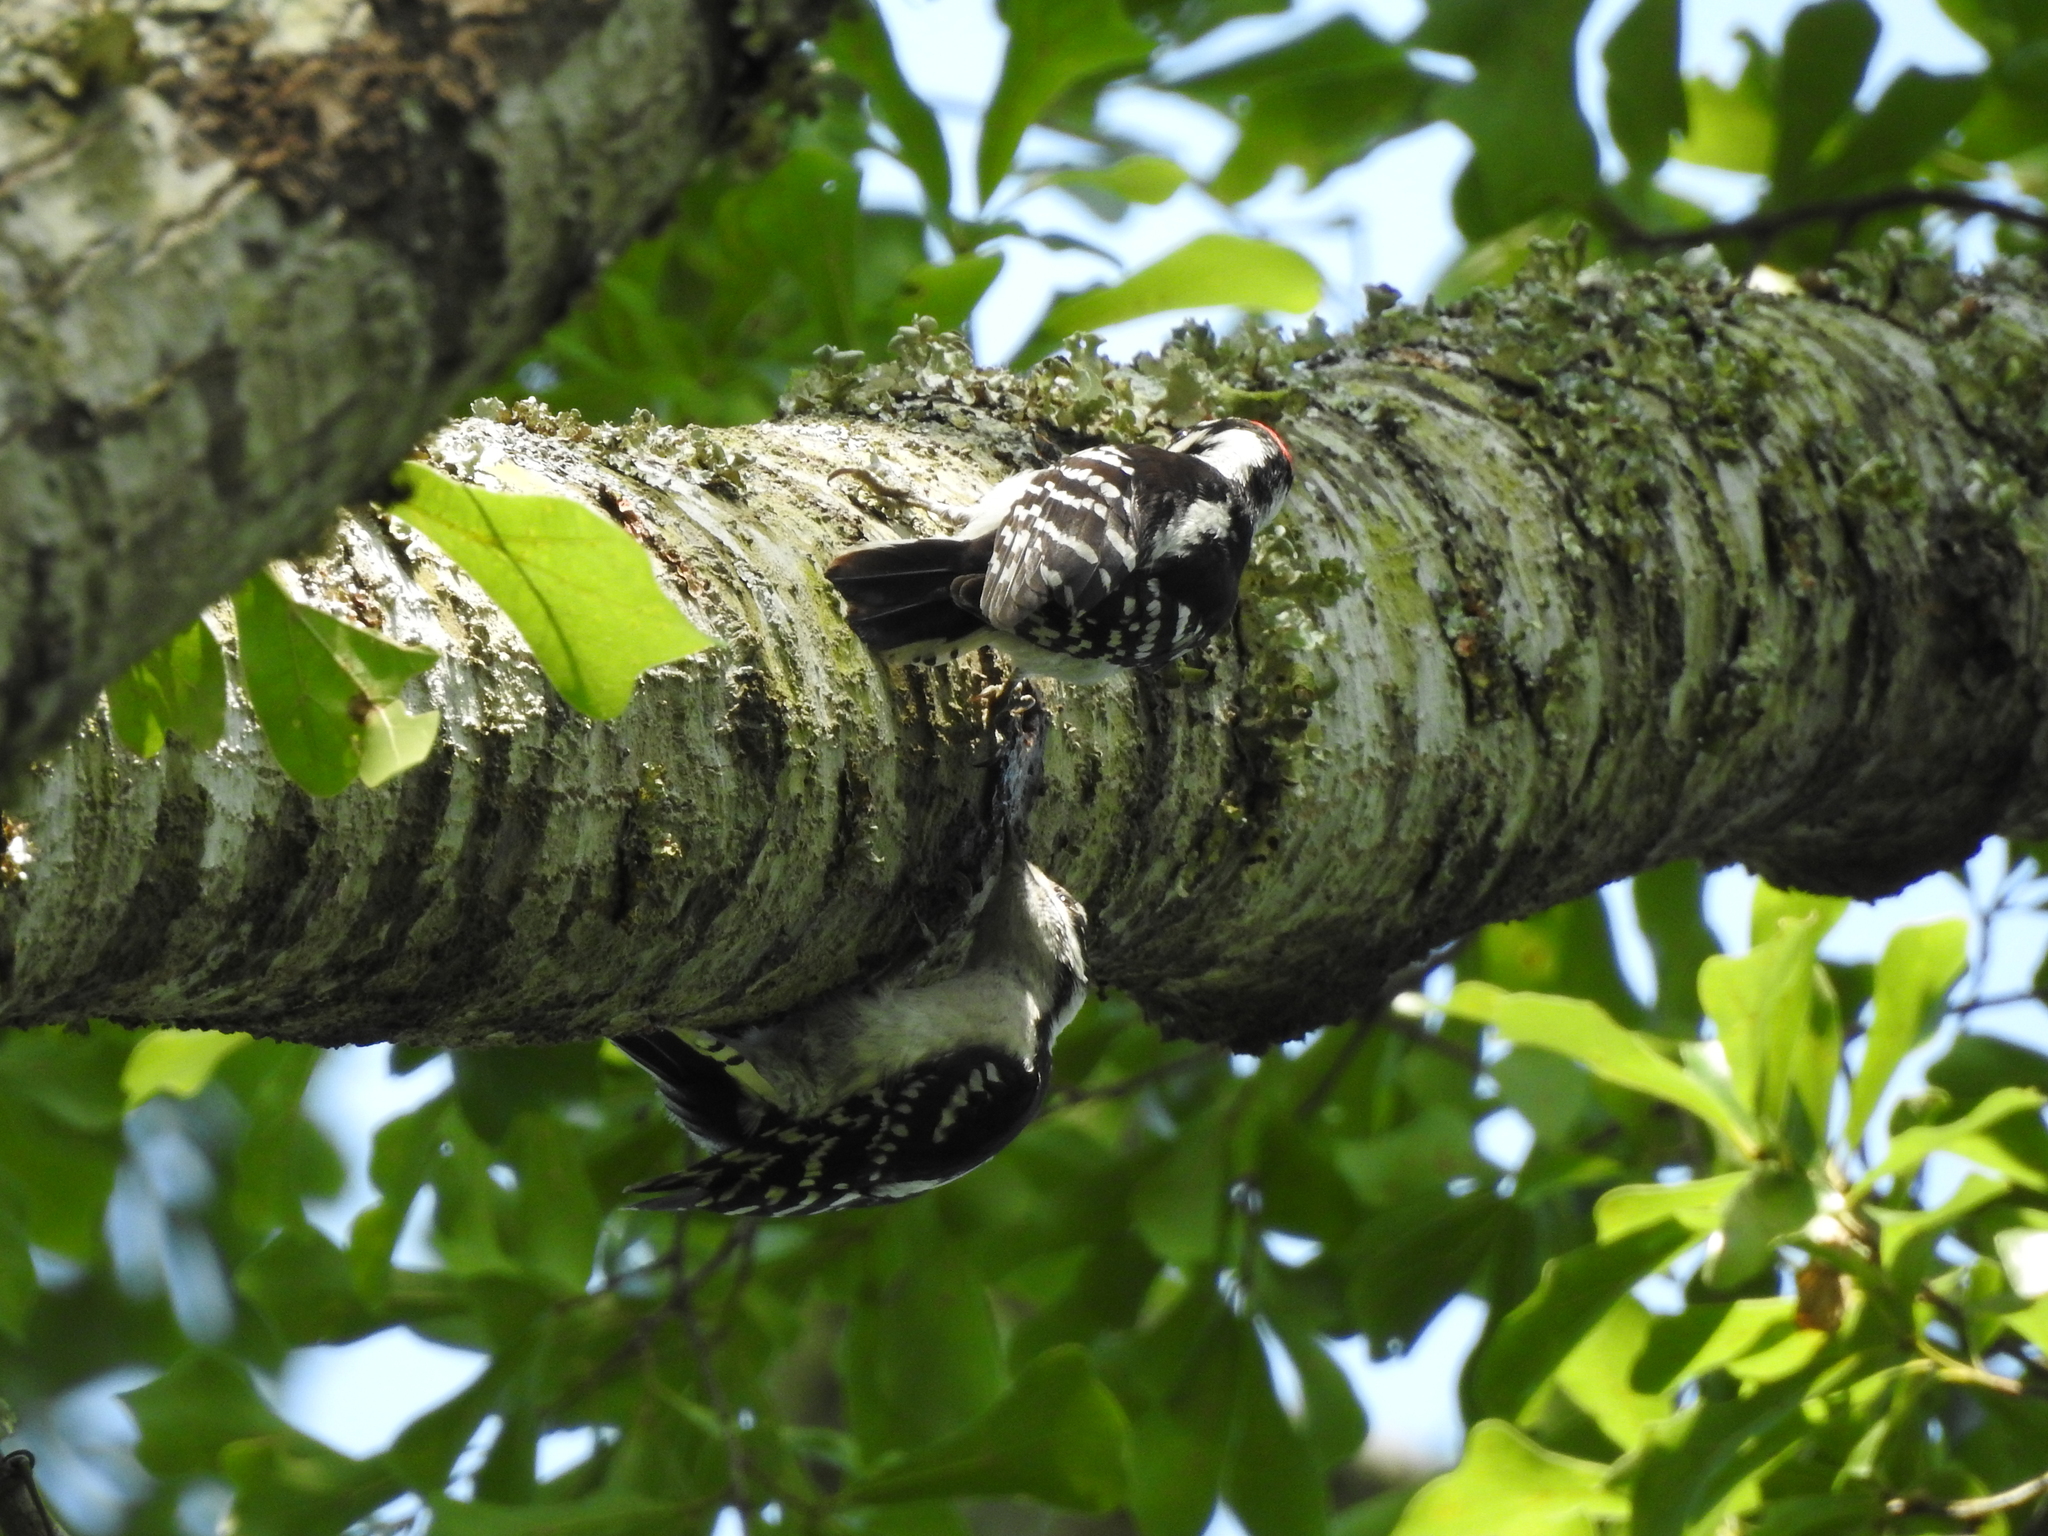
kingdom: Animalia
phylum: Chordata
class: Aves
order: Piciformes
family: Picidae
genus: Dryobates
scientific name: Dryobates pubescens
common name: Downy woodpecker
